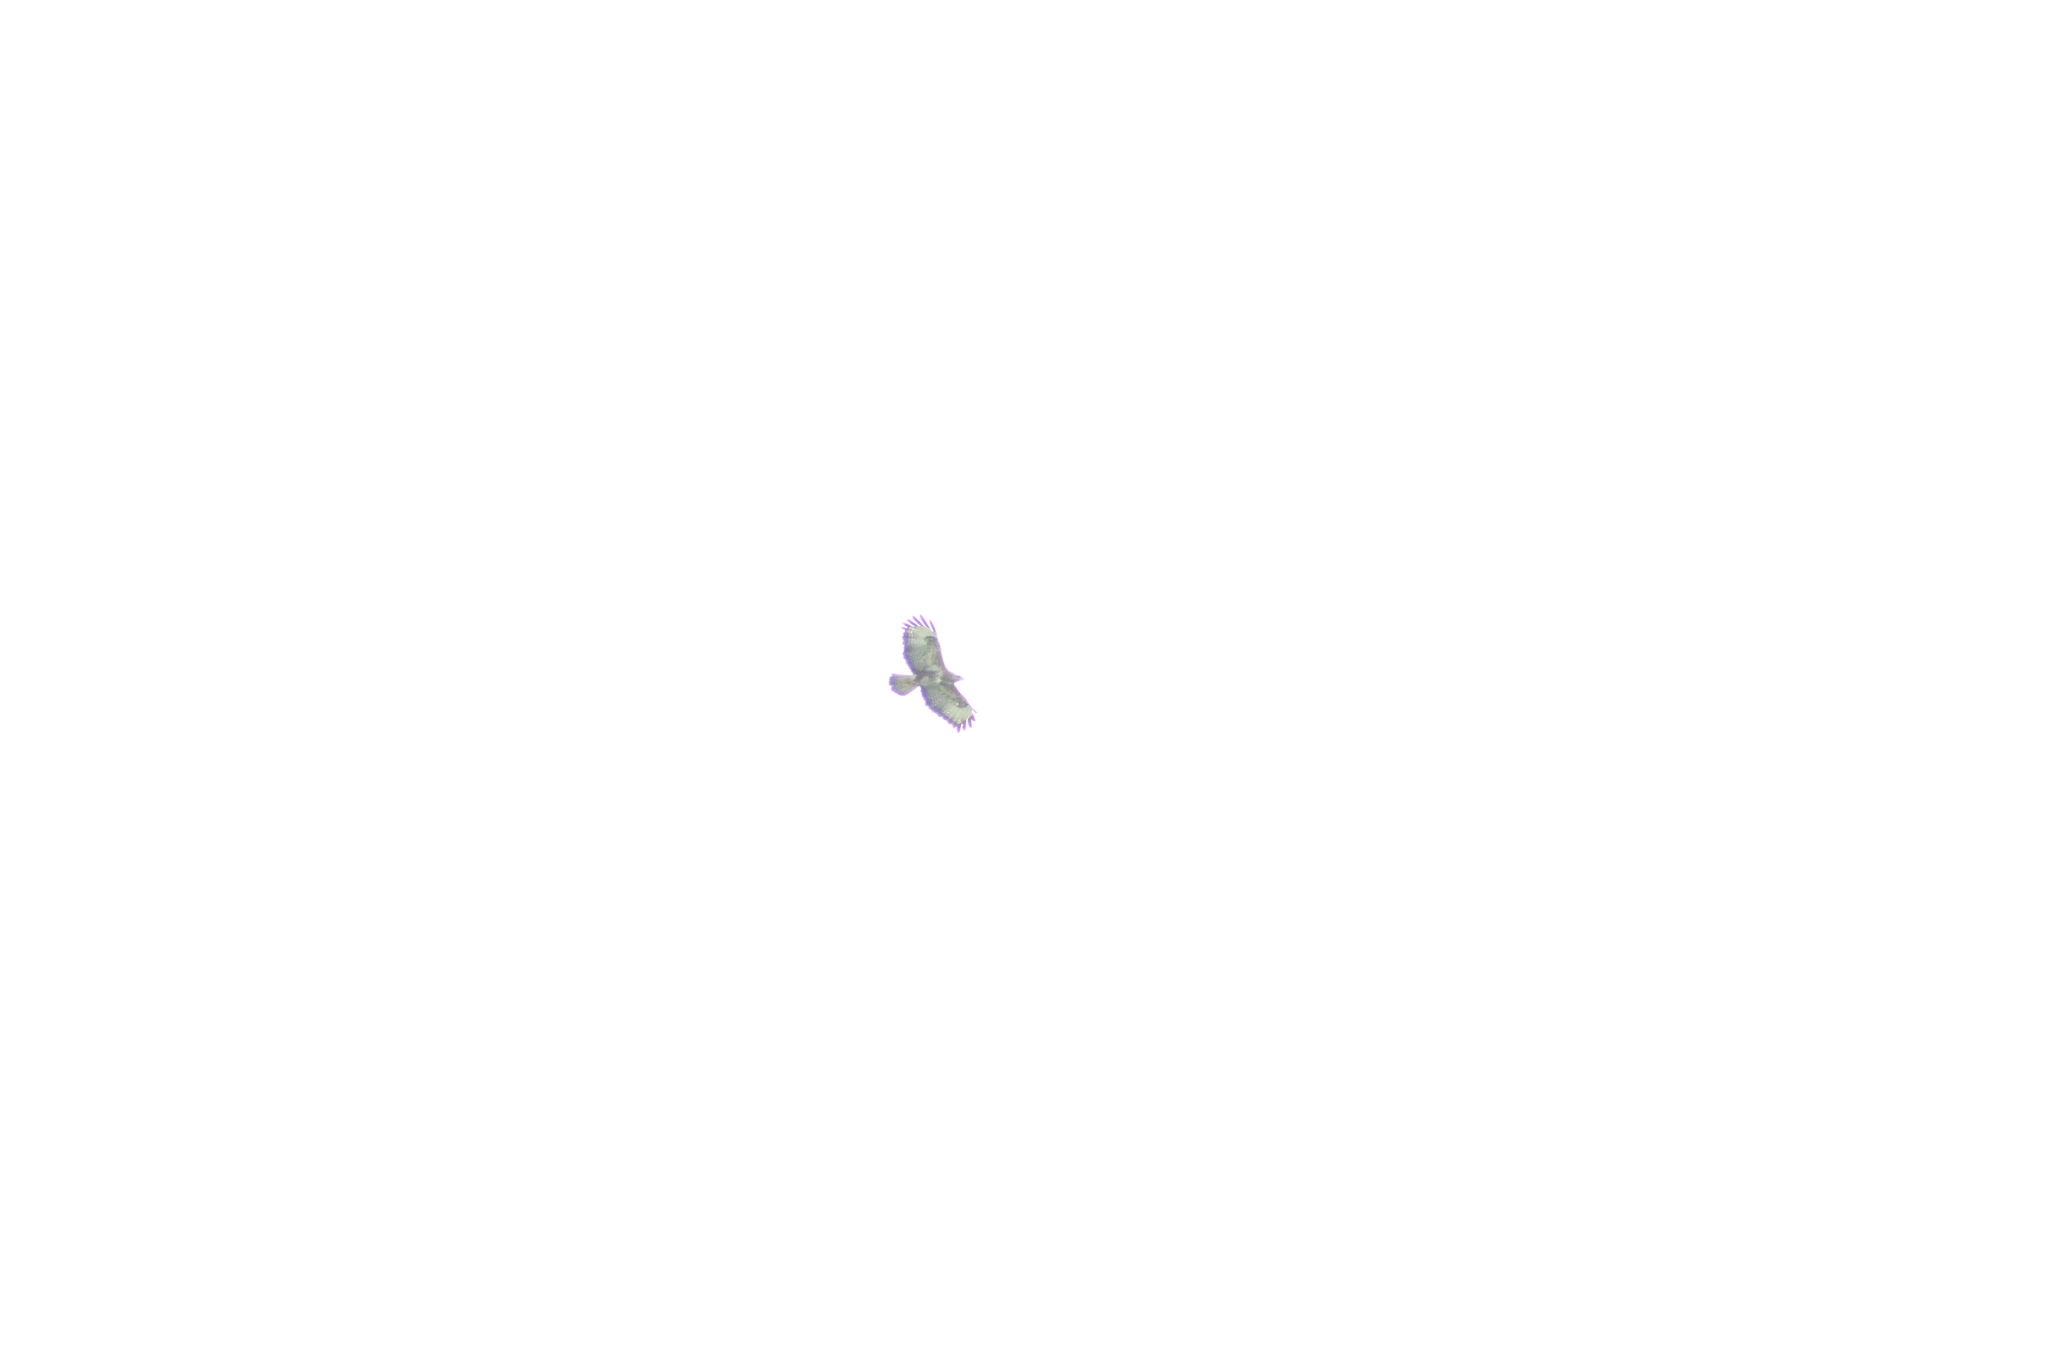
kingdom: Animalia
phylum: Chordata
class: Aves
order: Accipitriformes
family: Accipitridae
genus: Buteo
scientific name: Buteo buteo
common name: Common buzzard
